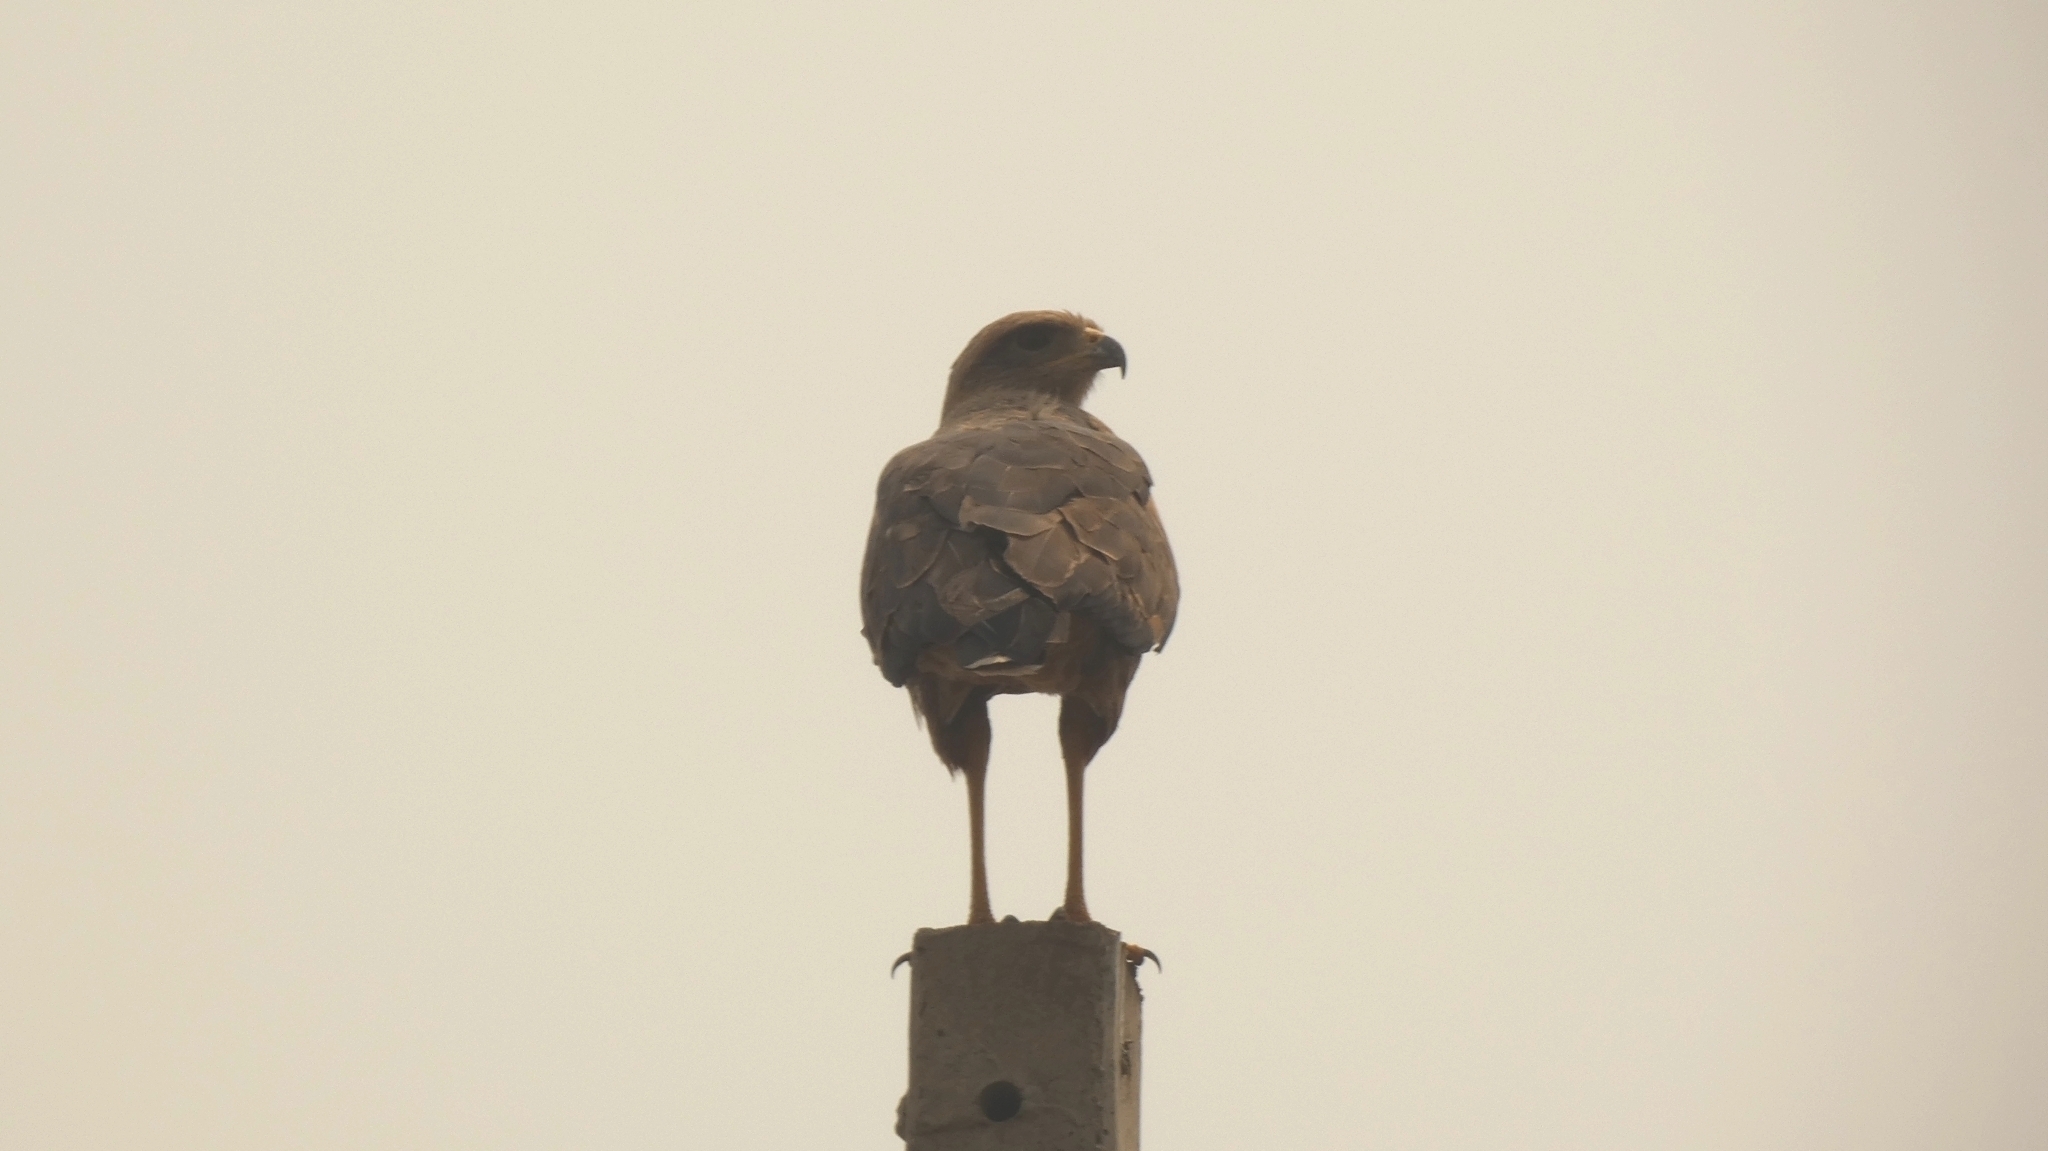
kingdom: Animalia
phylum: Chordata
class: Aves
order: Accipitriformes
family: Accipitridae
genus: Buteogallus
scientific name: Buteogallus meridionalis
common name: Savanna hawk
